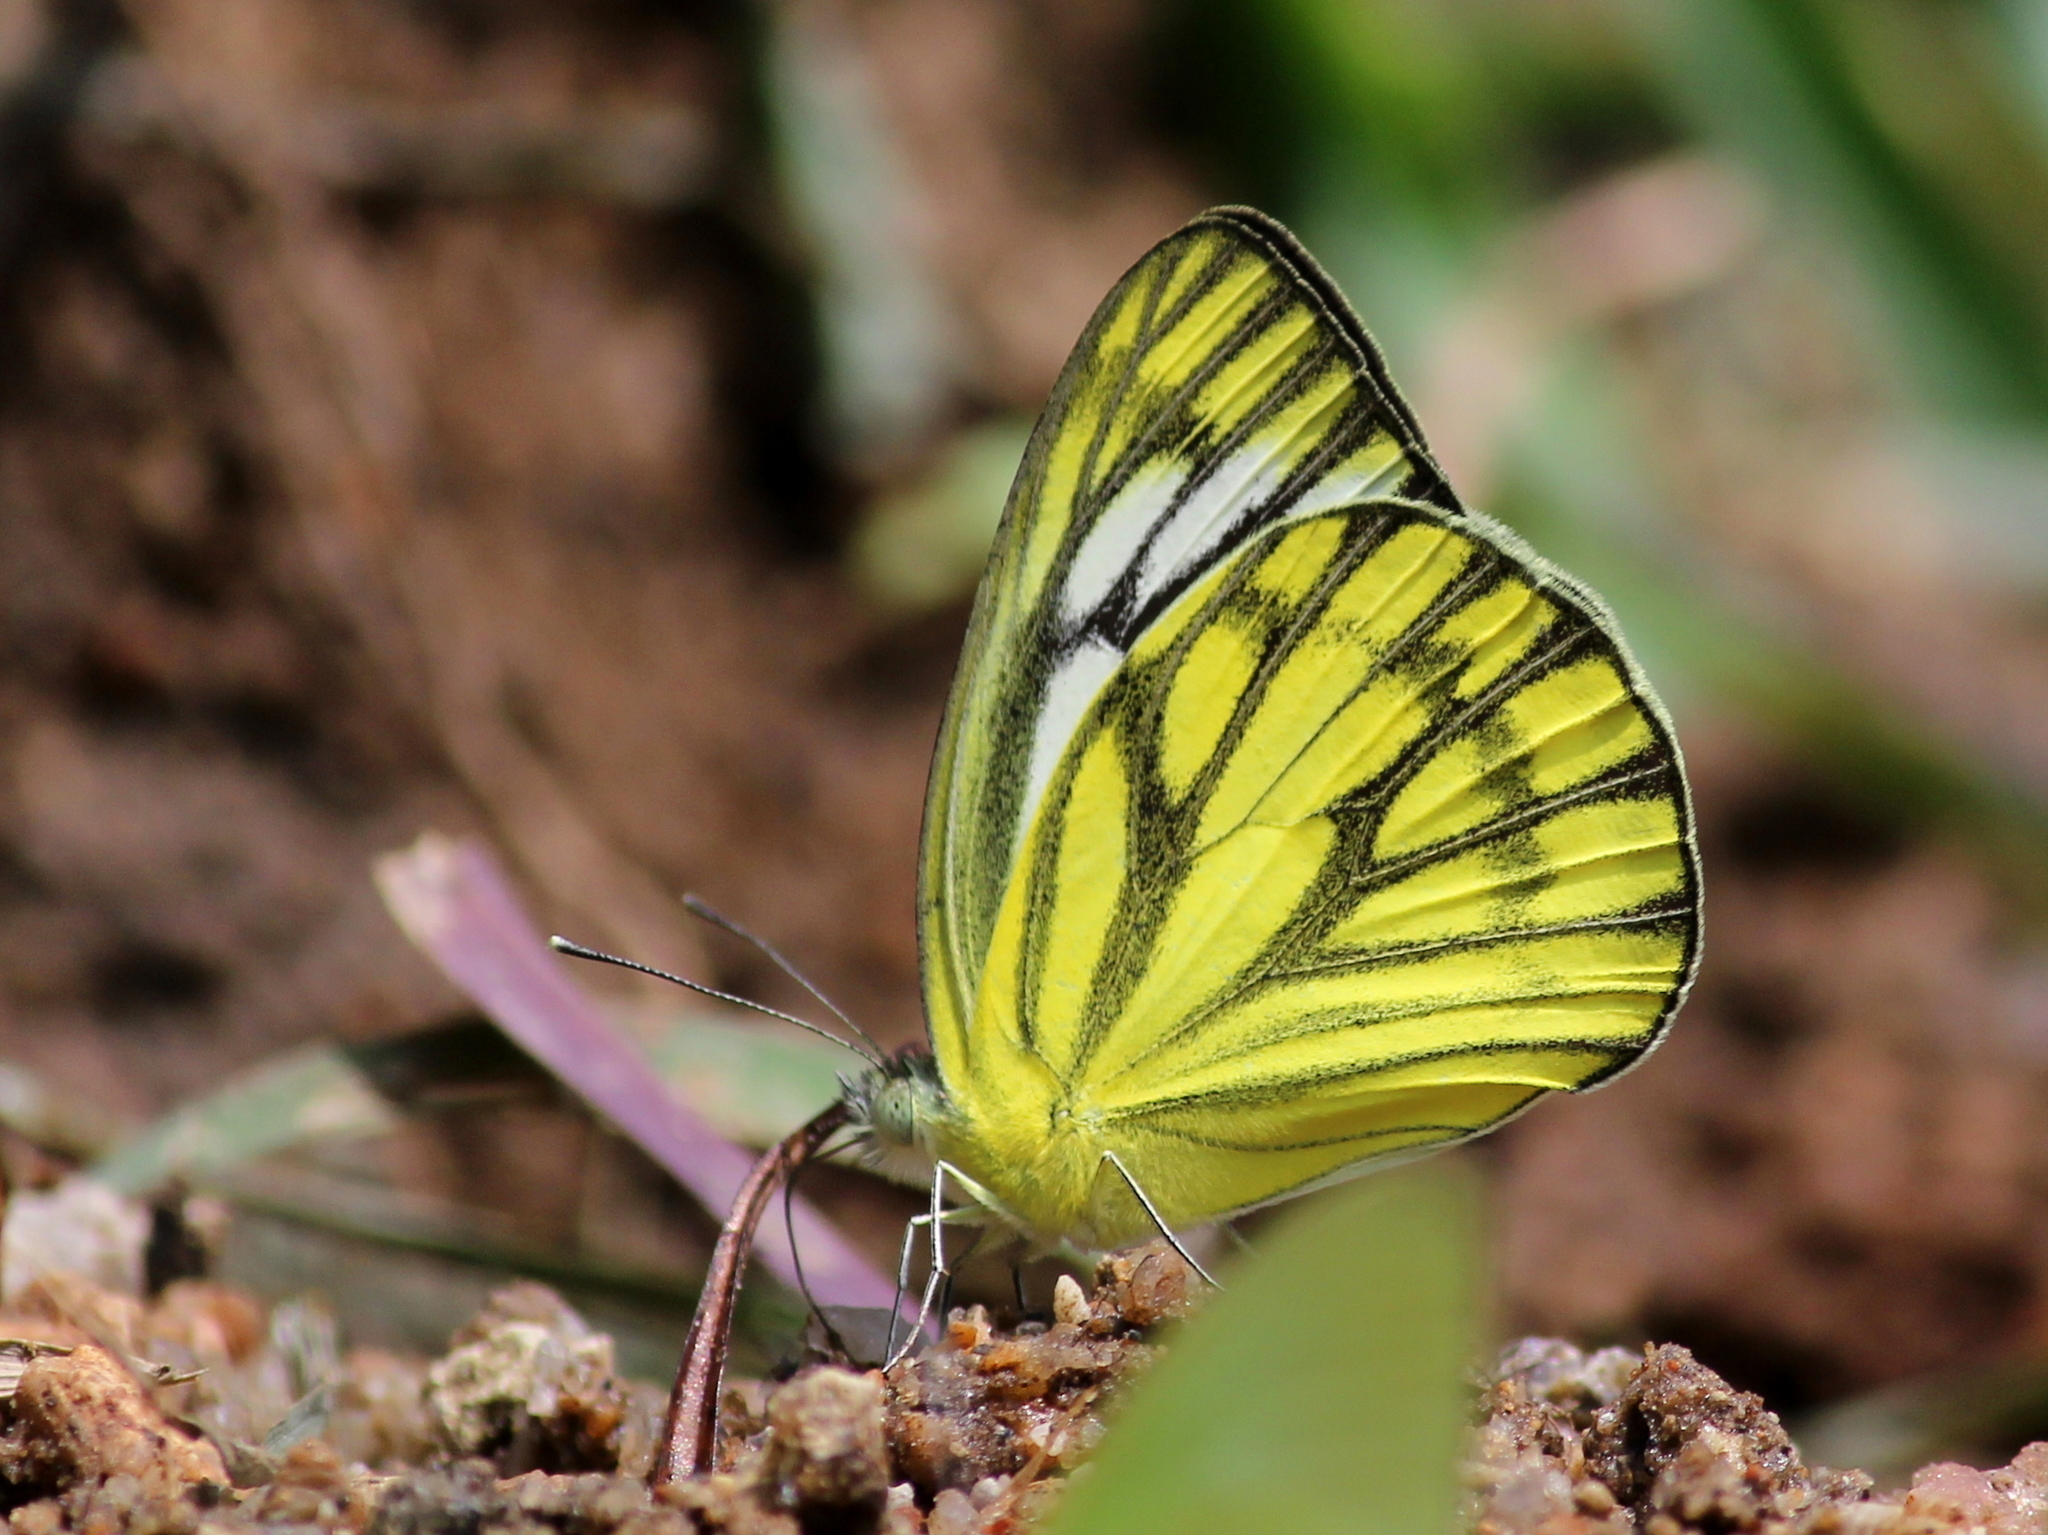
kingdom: Animalia
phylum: Arthropoda
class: Insecta
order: Lepidoptera
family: Pieridae
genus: Cepora
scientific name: Cepora nerissa
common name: Common gull
